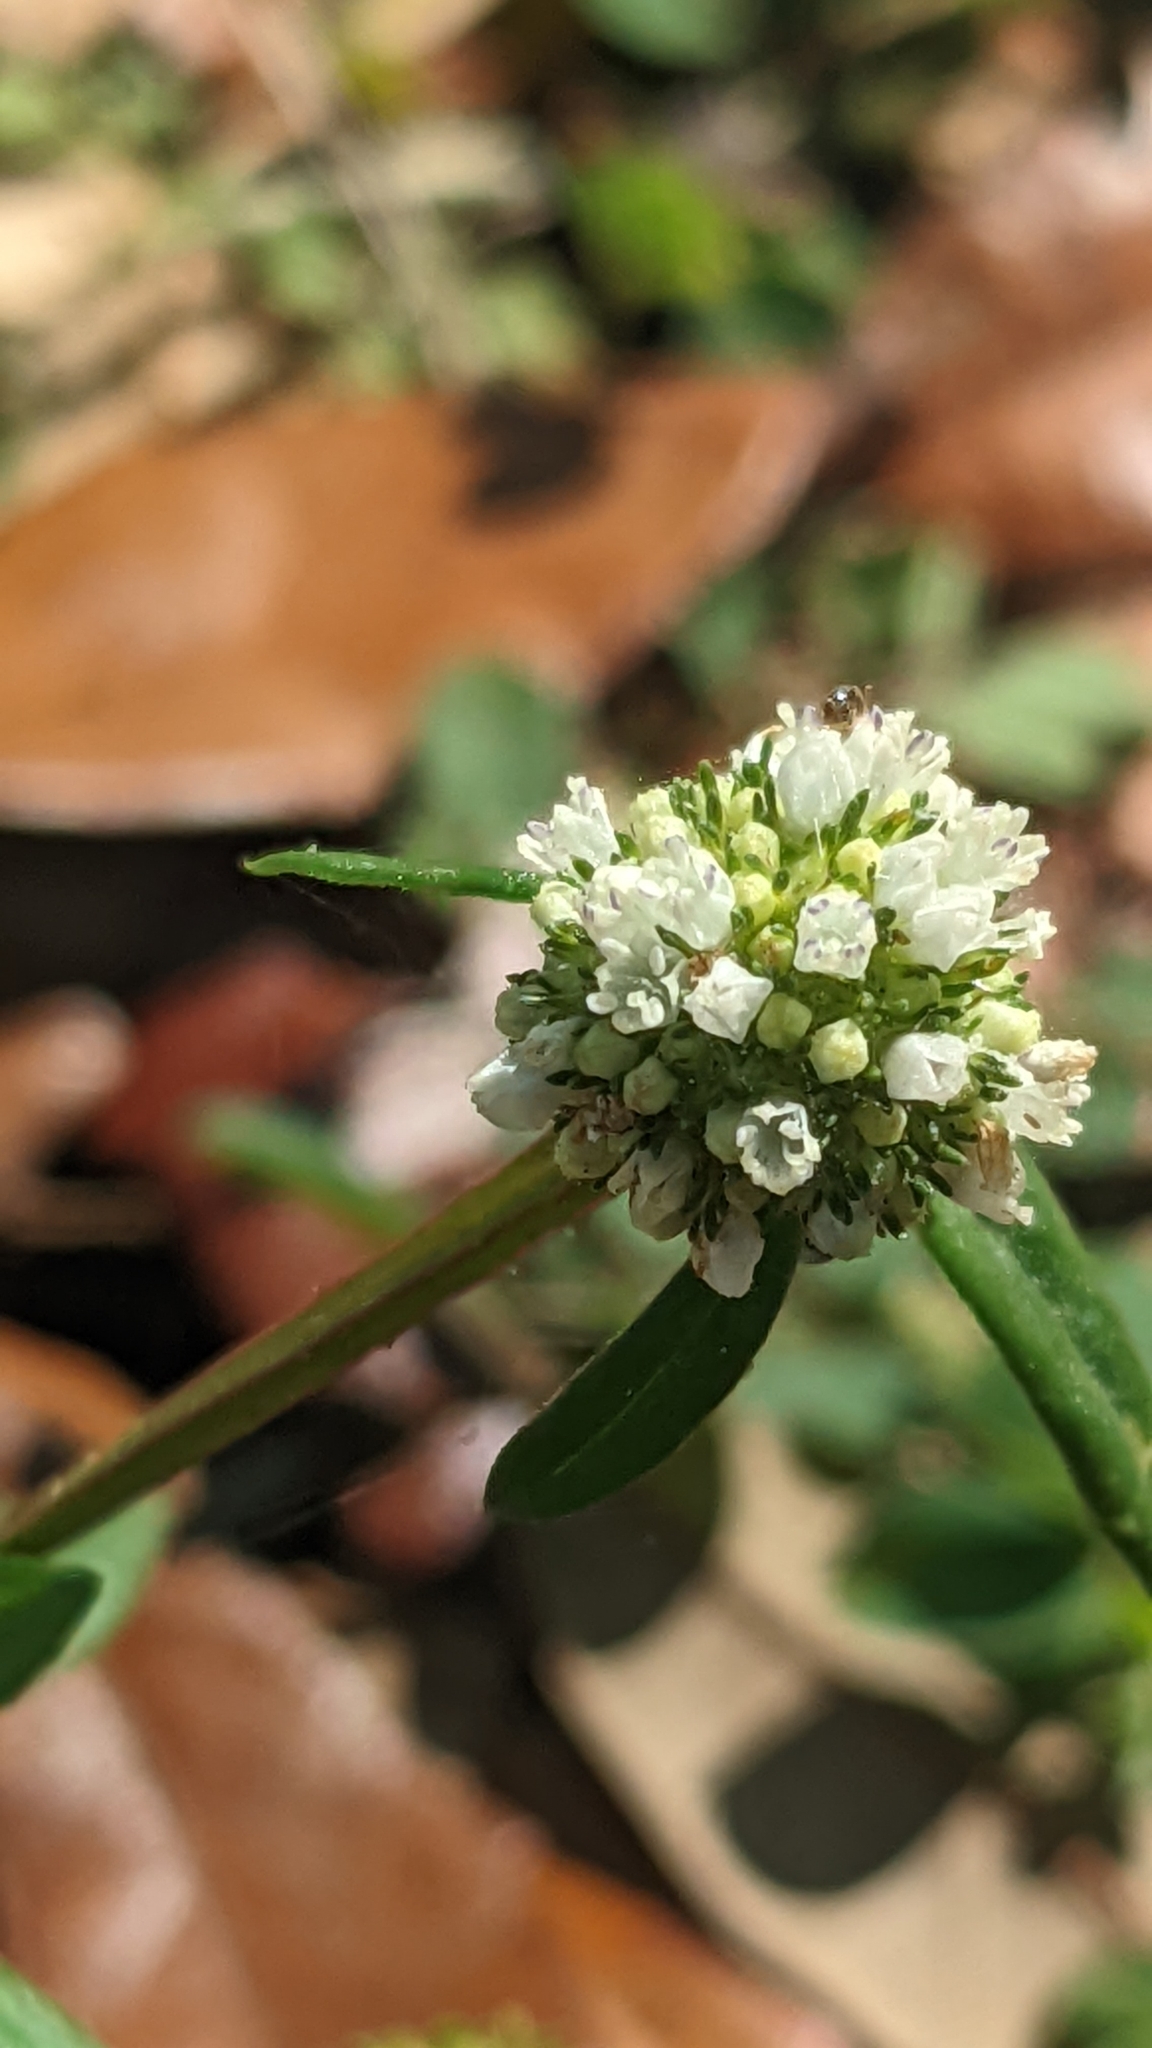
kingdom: Plantae
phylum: Tracheophyta
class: Magnoliopsida
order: Gentianales
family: Rubiaceae
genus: Spermacoce
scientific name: Spermacoce verticillata
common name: Shrubby false buttonweed
